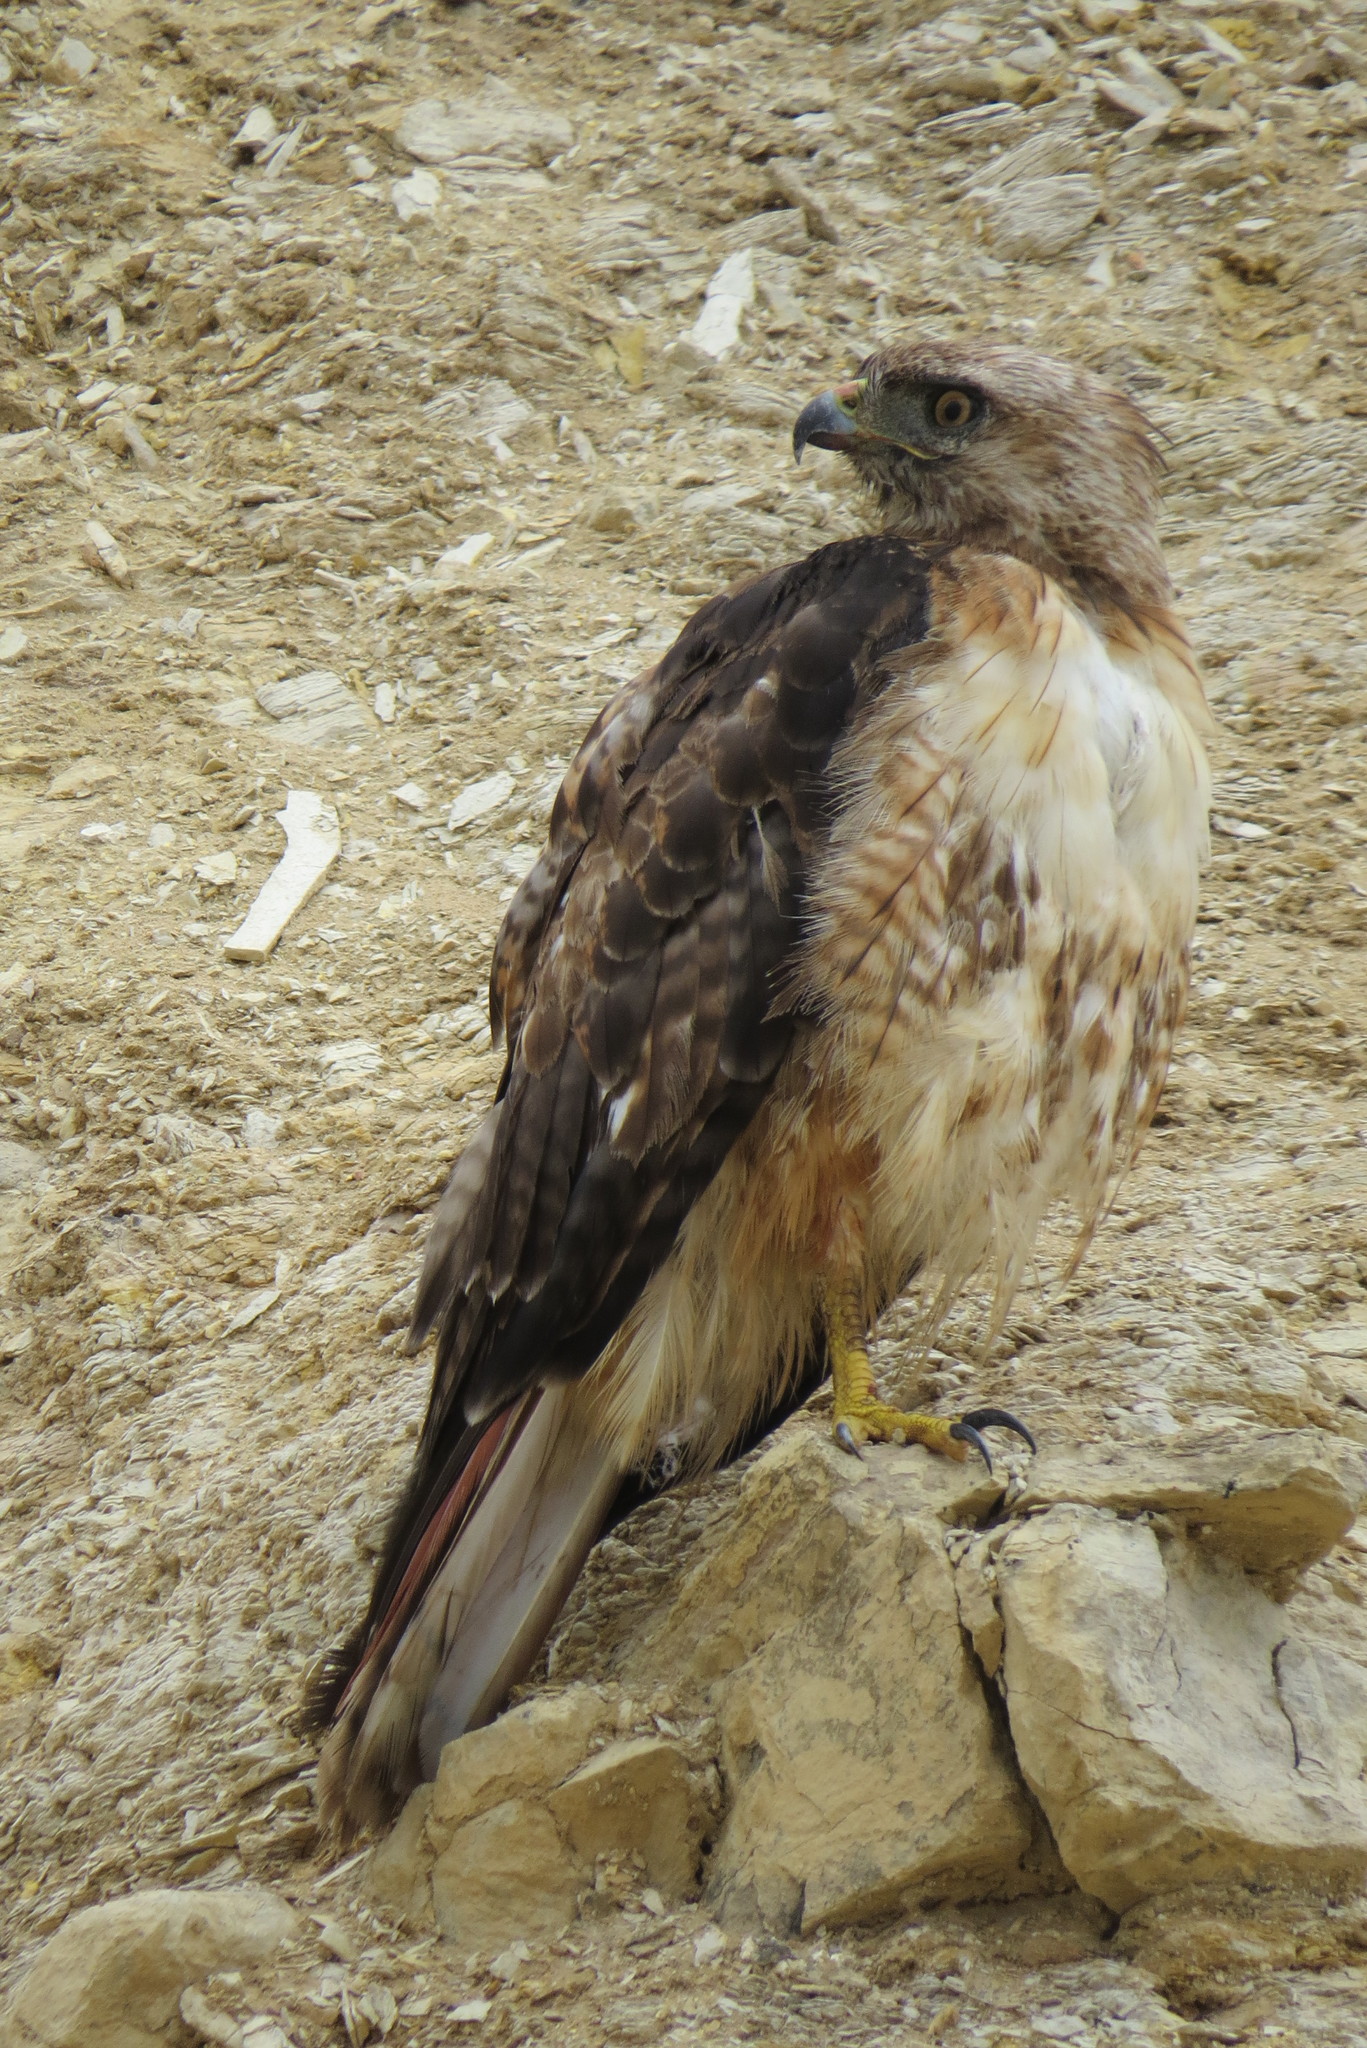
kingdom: Animalia
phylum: Chordata
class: Aves
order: Accipitriformes
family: Accipitridae
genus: Buteo
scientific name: Buteo jamaicensis
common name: Red-tailed hawk
